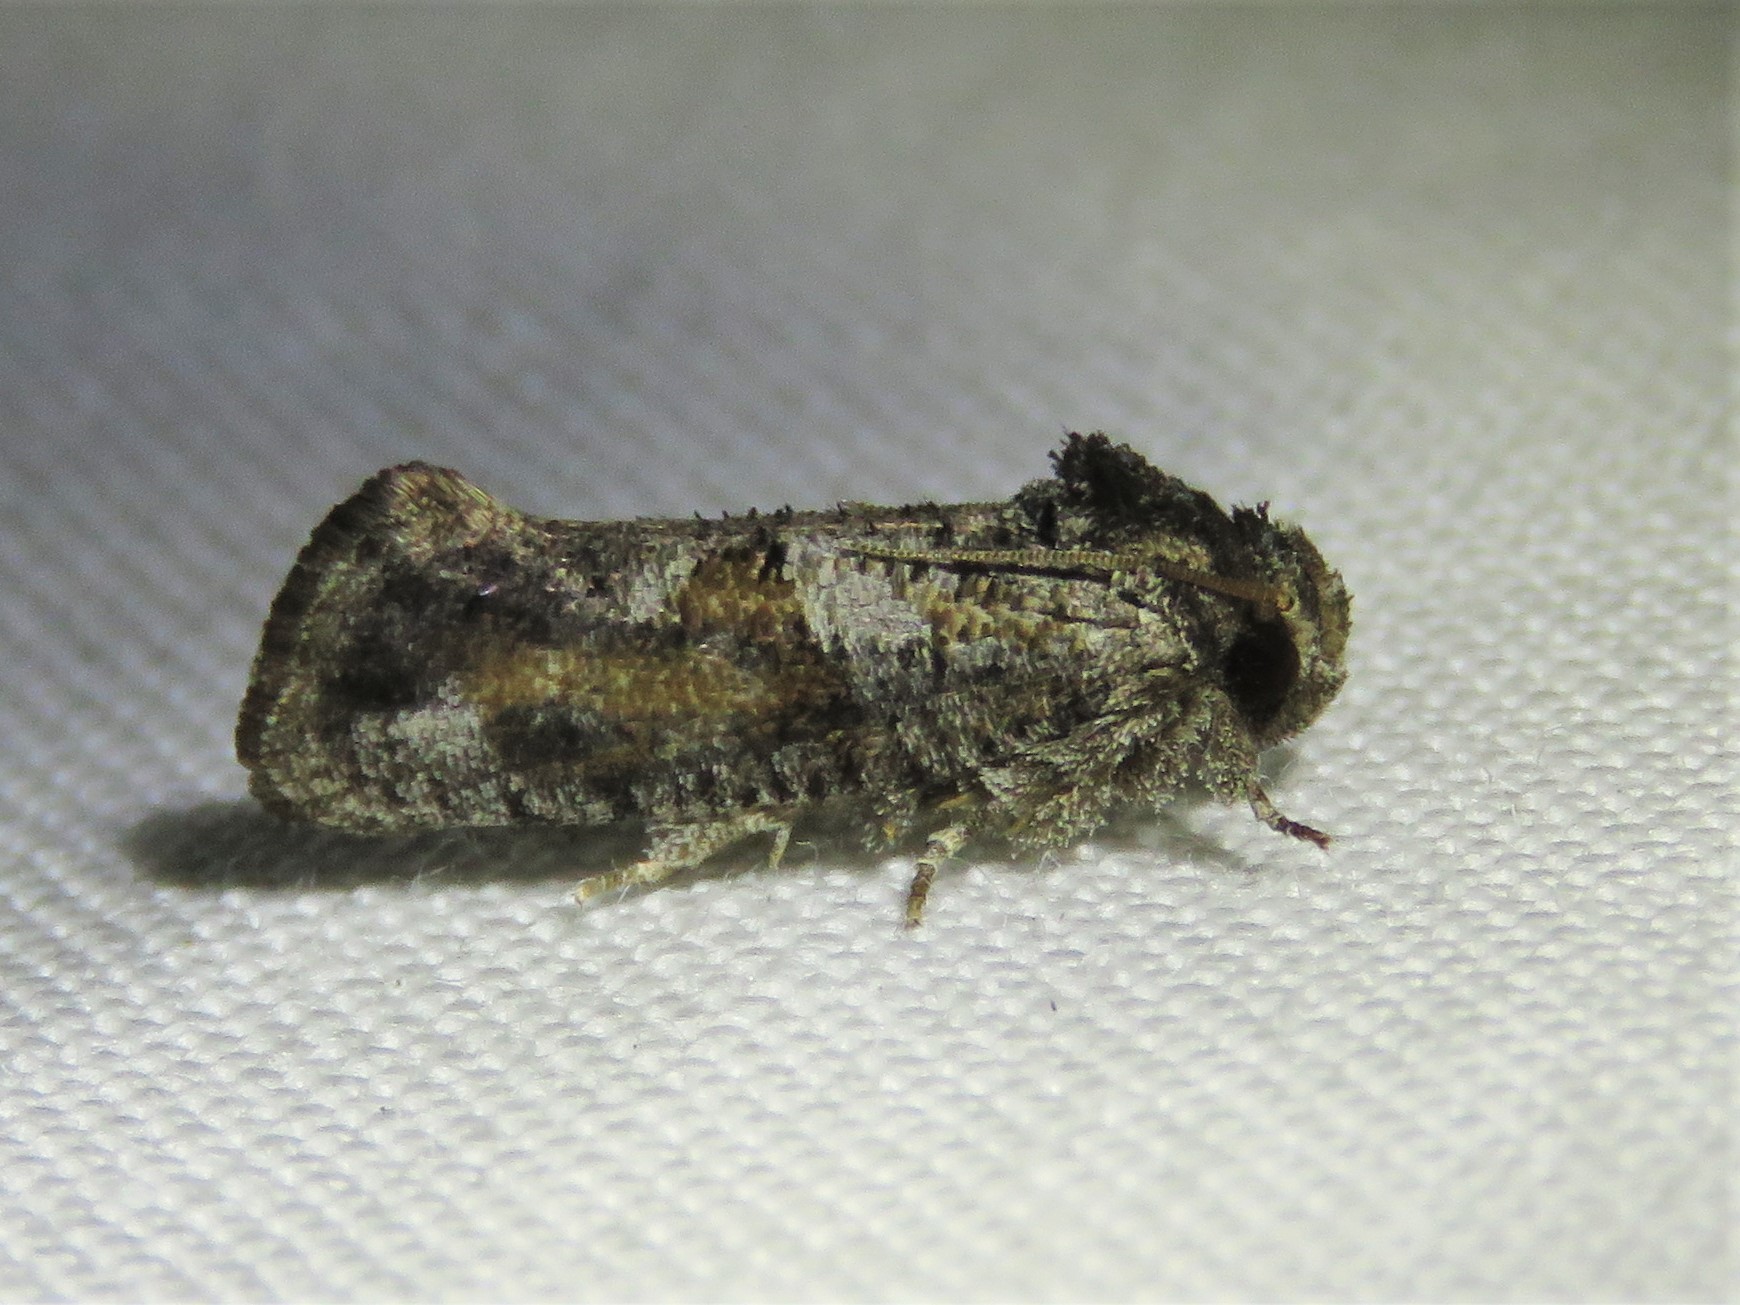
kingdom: Animalia
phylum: Arthropoda
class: Insecta
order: Lepidoptera
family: Tineidae
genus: Acrolophus
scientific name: Acrolophus piger
